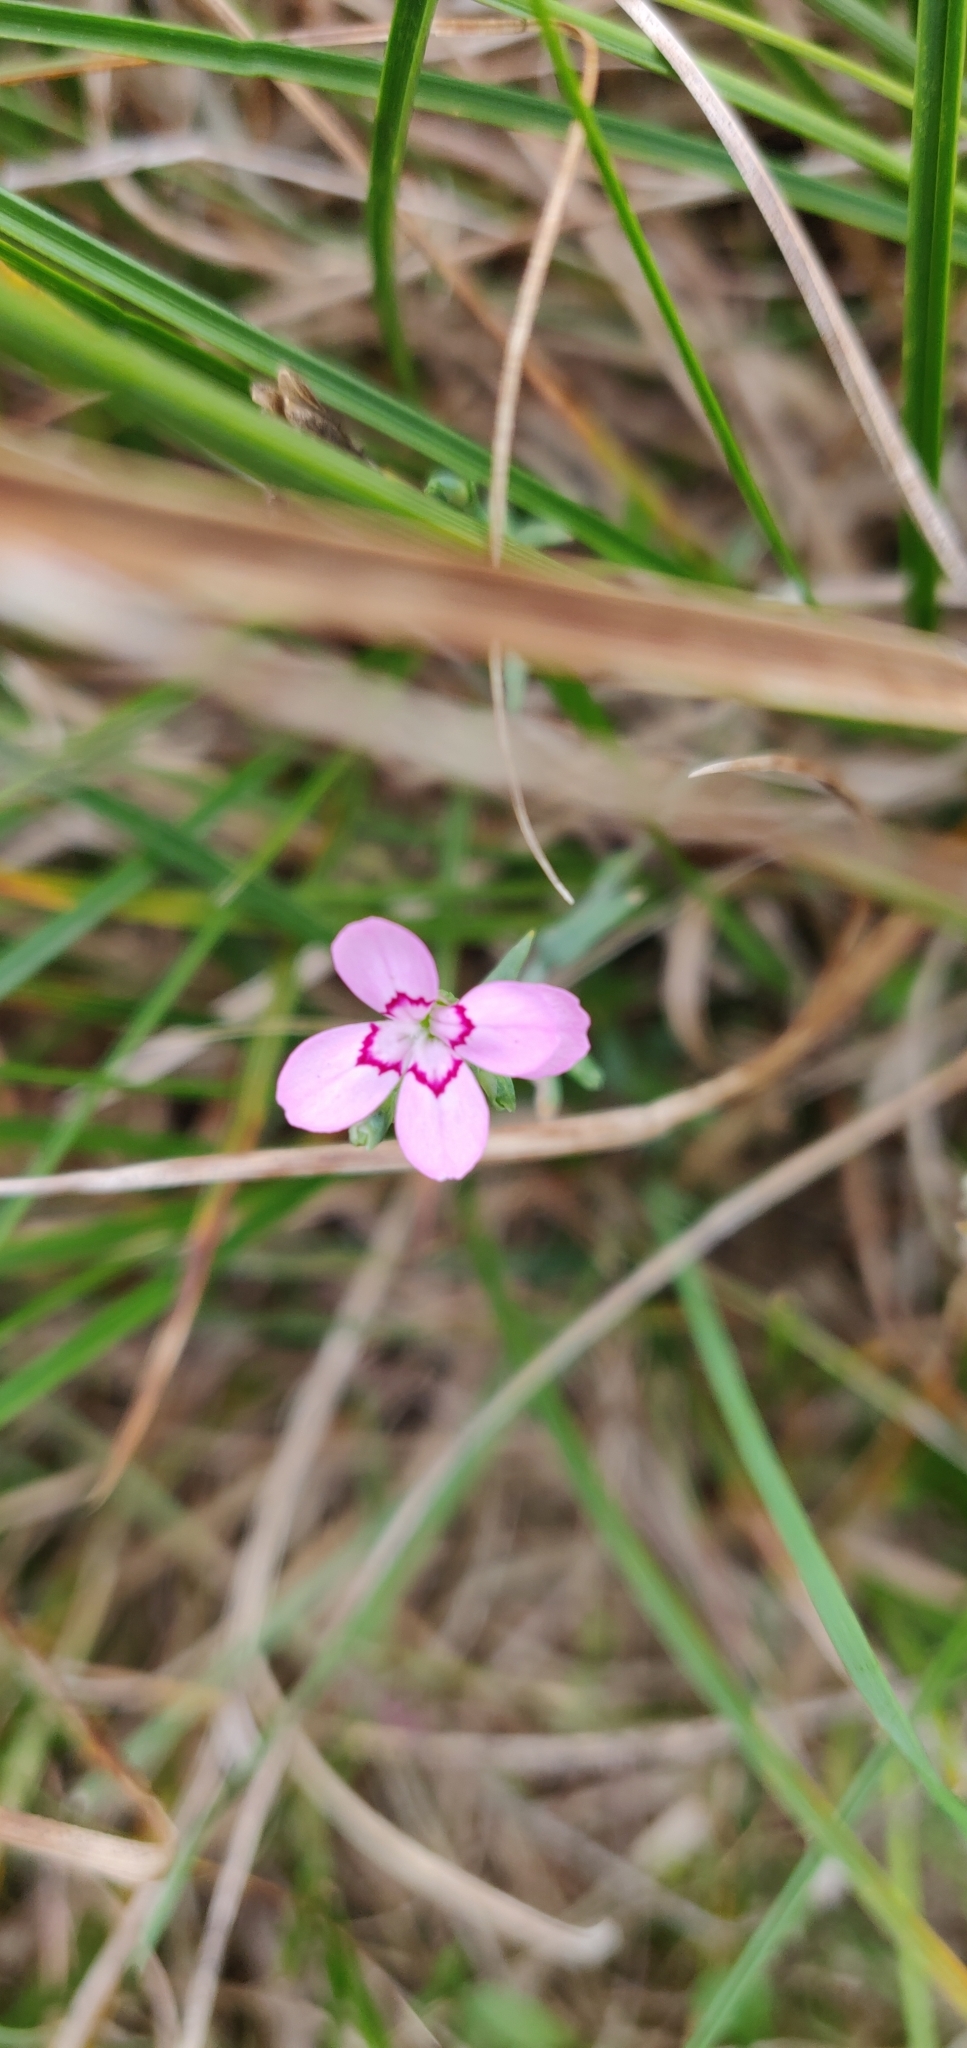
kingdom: Plantae
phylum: Tracheophyta
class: Magnoliopsida
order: Caryophyllales
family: Caryophyllaceae
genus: Dianthus
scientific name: Dianthus deltoides
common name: Maiden pink
